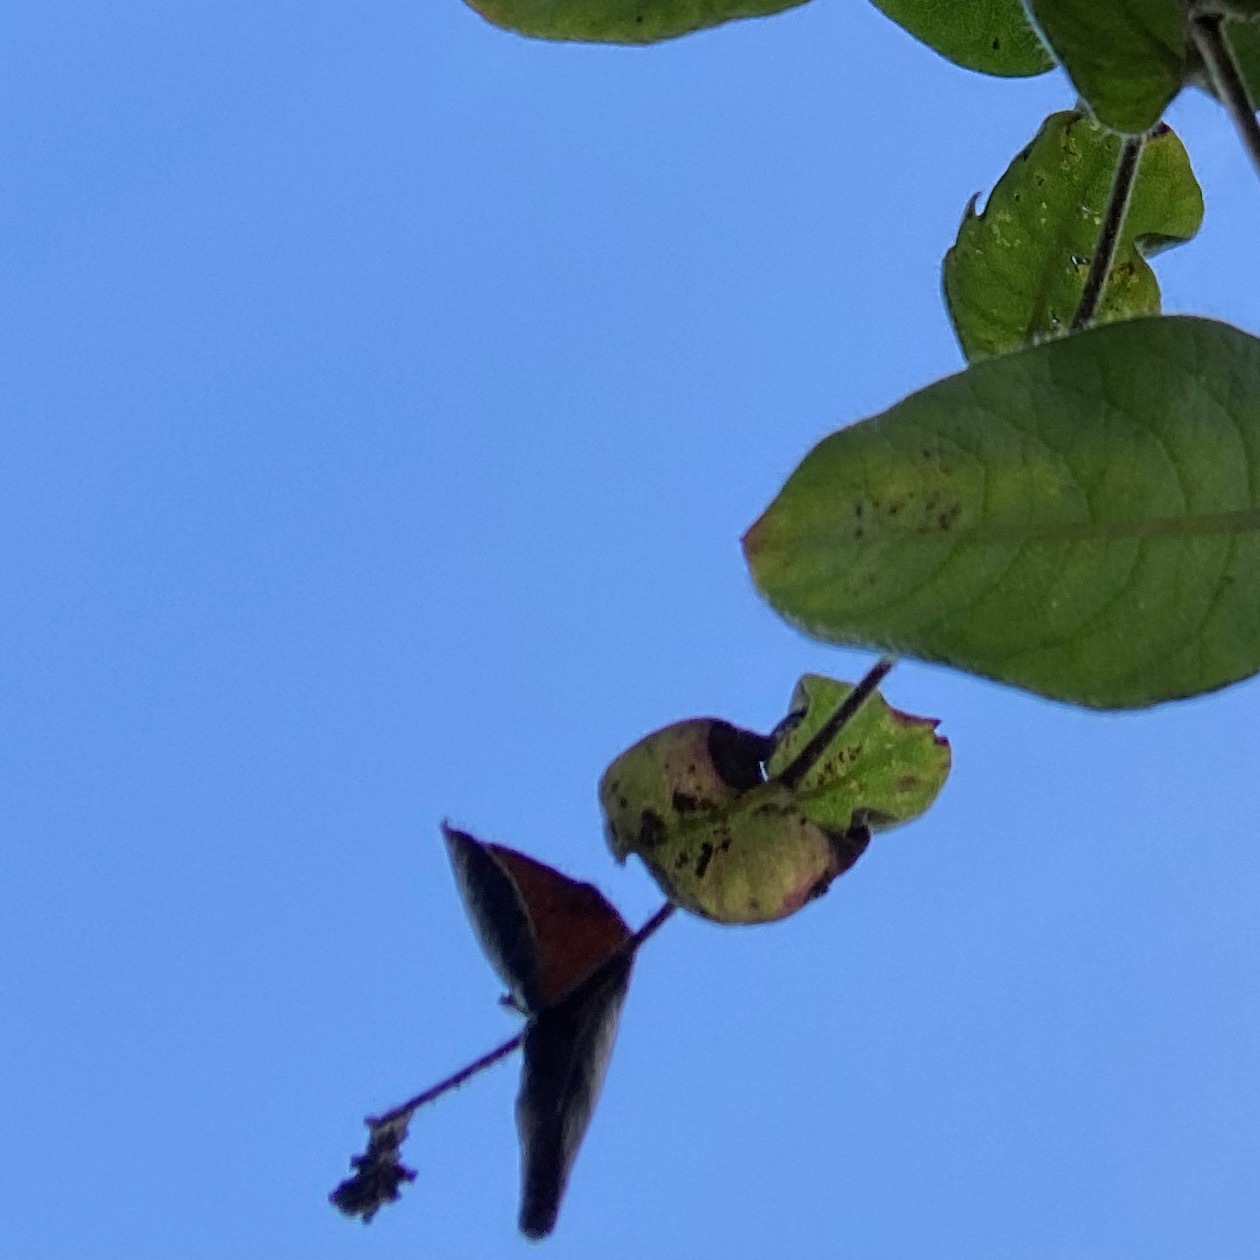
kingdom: Plantae
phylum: Tracheophyta
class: Magnoliopsida
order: Dipsacales
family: Caprifoliaceae
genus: Lonicera
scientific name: Lonicera hispidula
